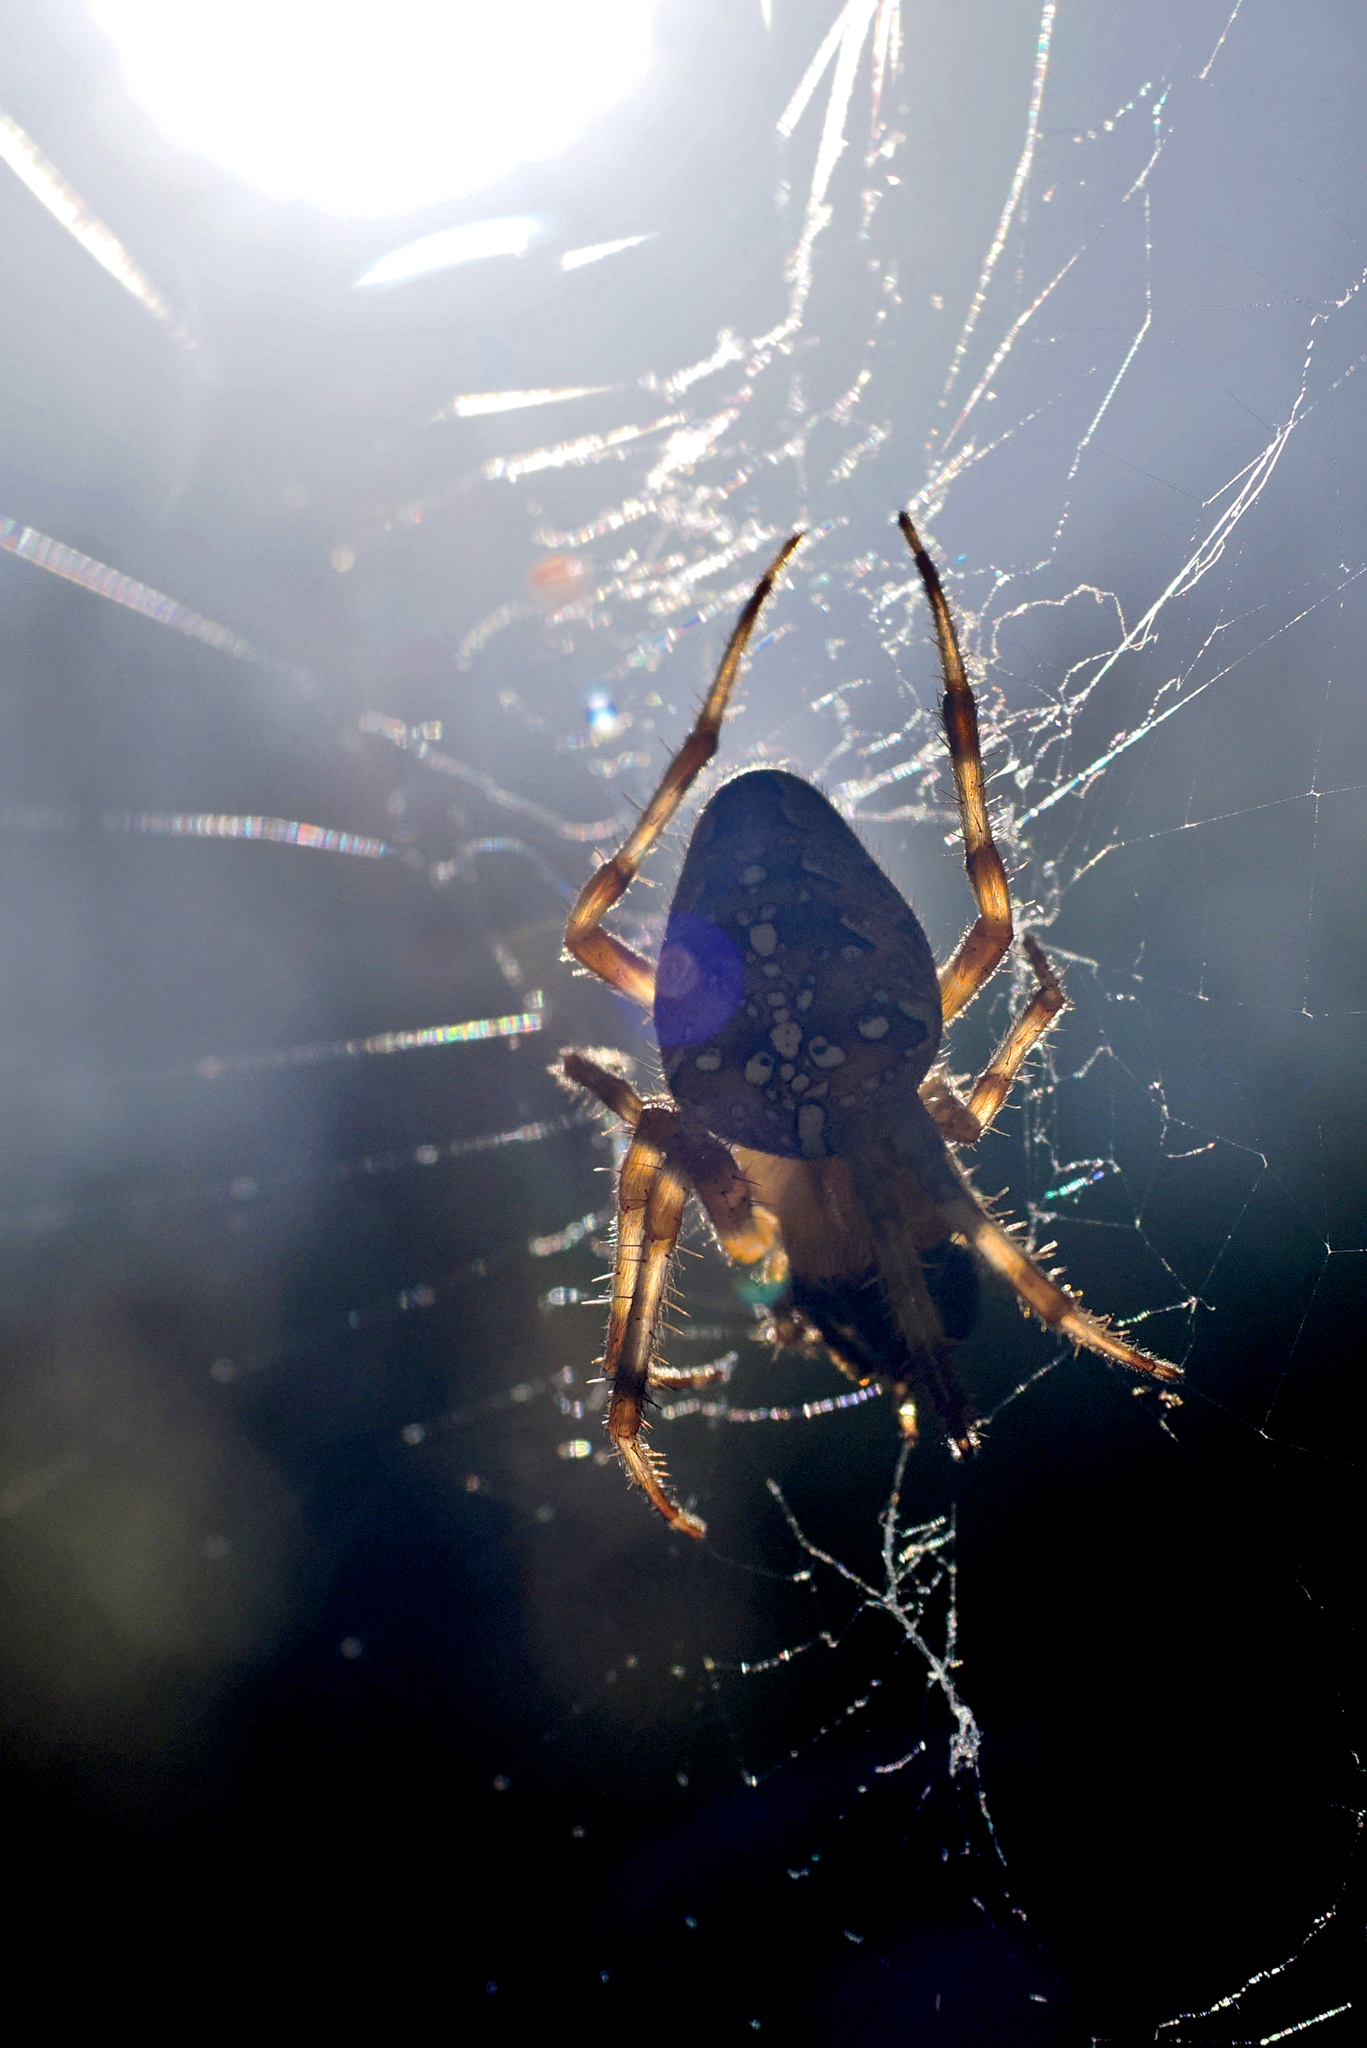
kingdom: Animalia
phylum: Arthropoda
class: Arachnida
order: Araneae
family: Araneidae
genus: Araneus
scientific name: Araneus diadematus
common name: Cross orbweaver
